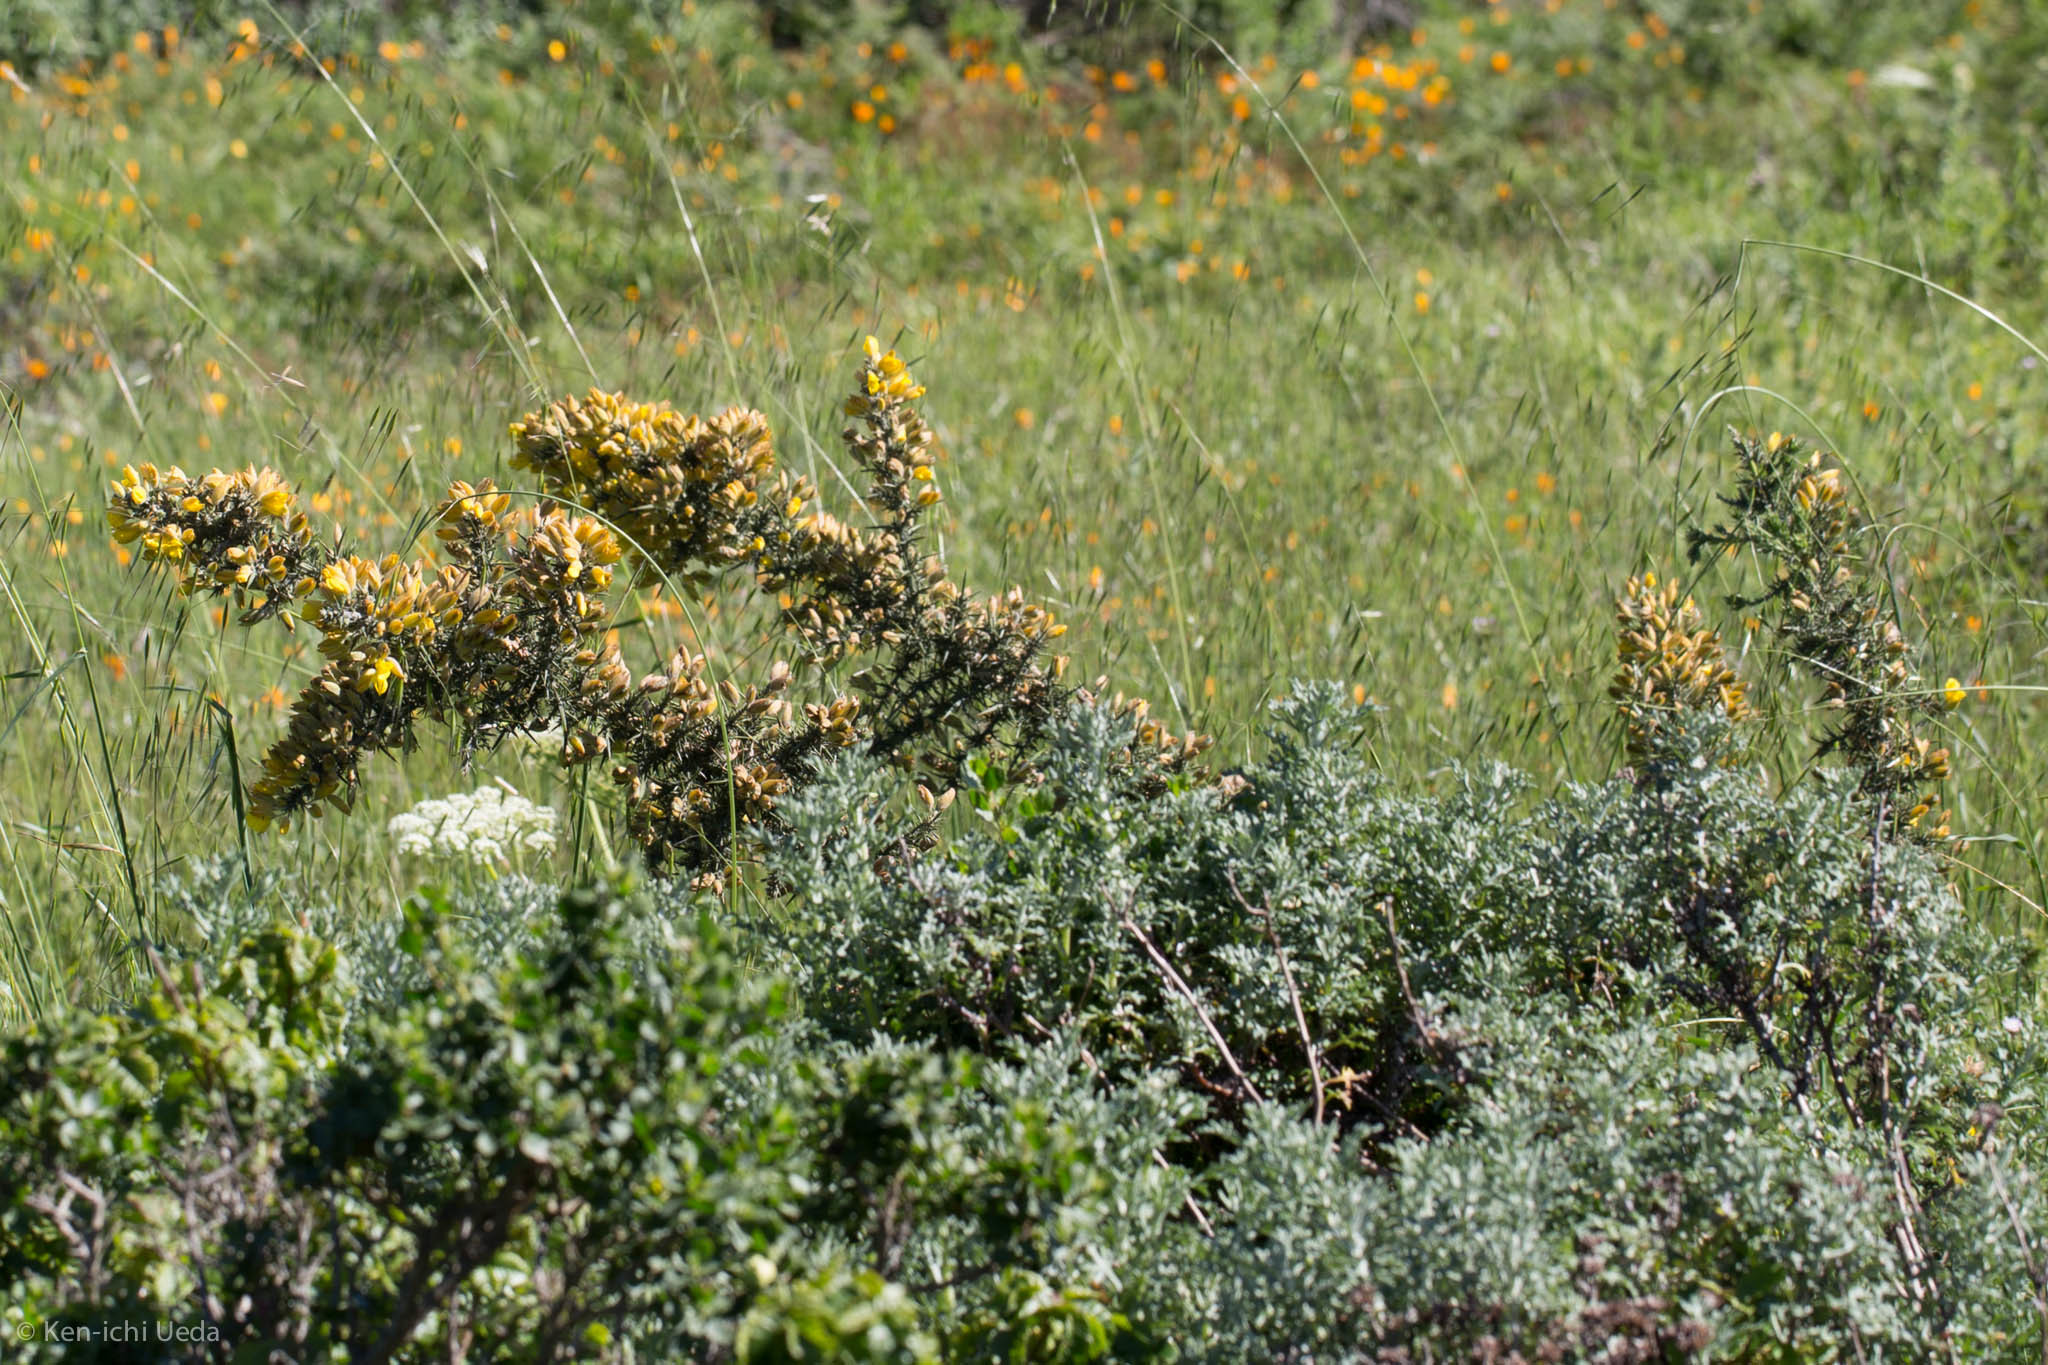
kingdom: Plantae
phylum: Tracheophyta
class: Magnoliopsida
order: Fabales
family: Fabaceae
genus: Ulex
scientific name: Ulex europaeus
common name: Common gorse
